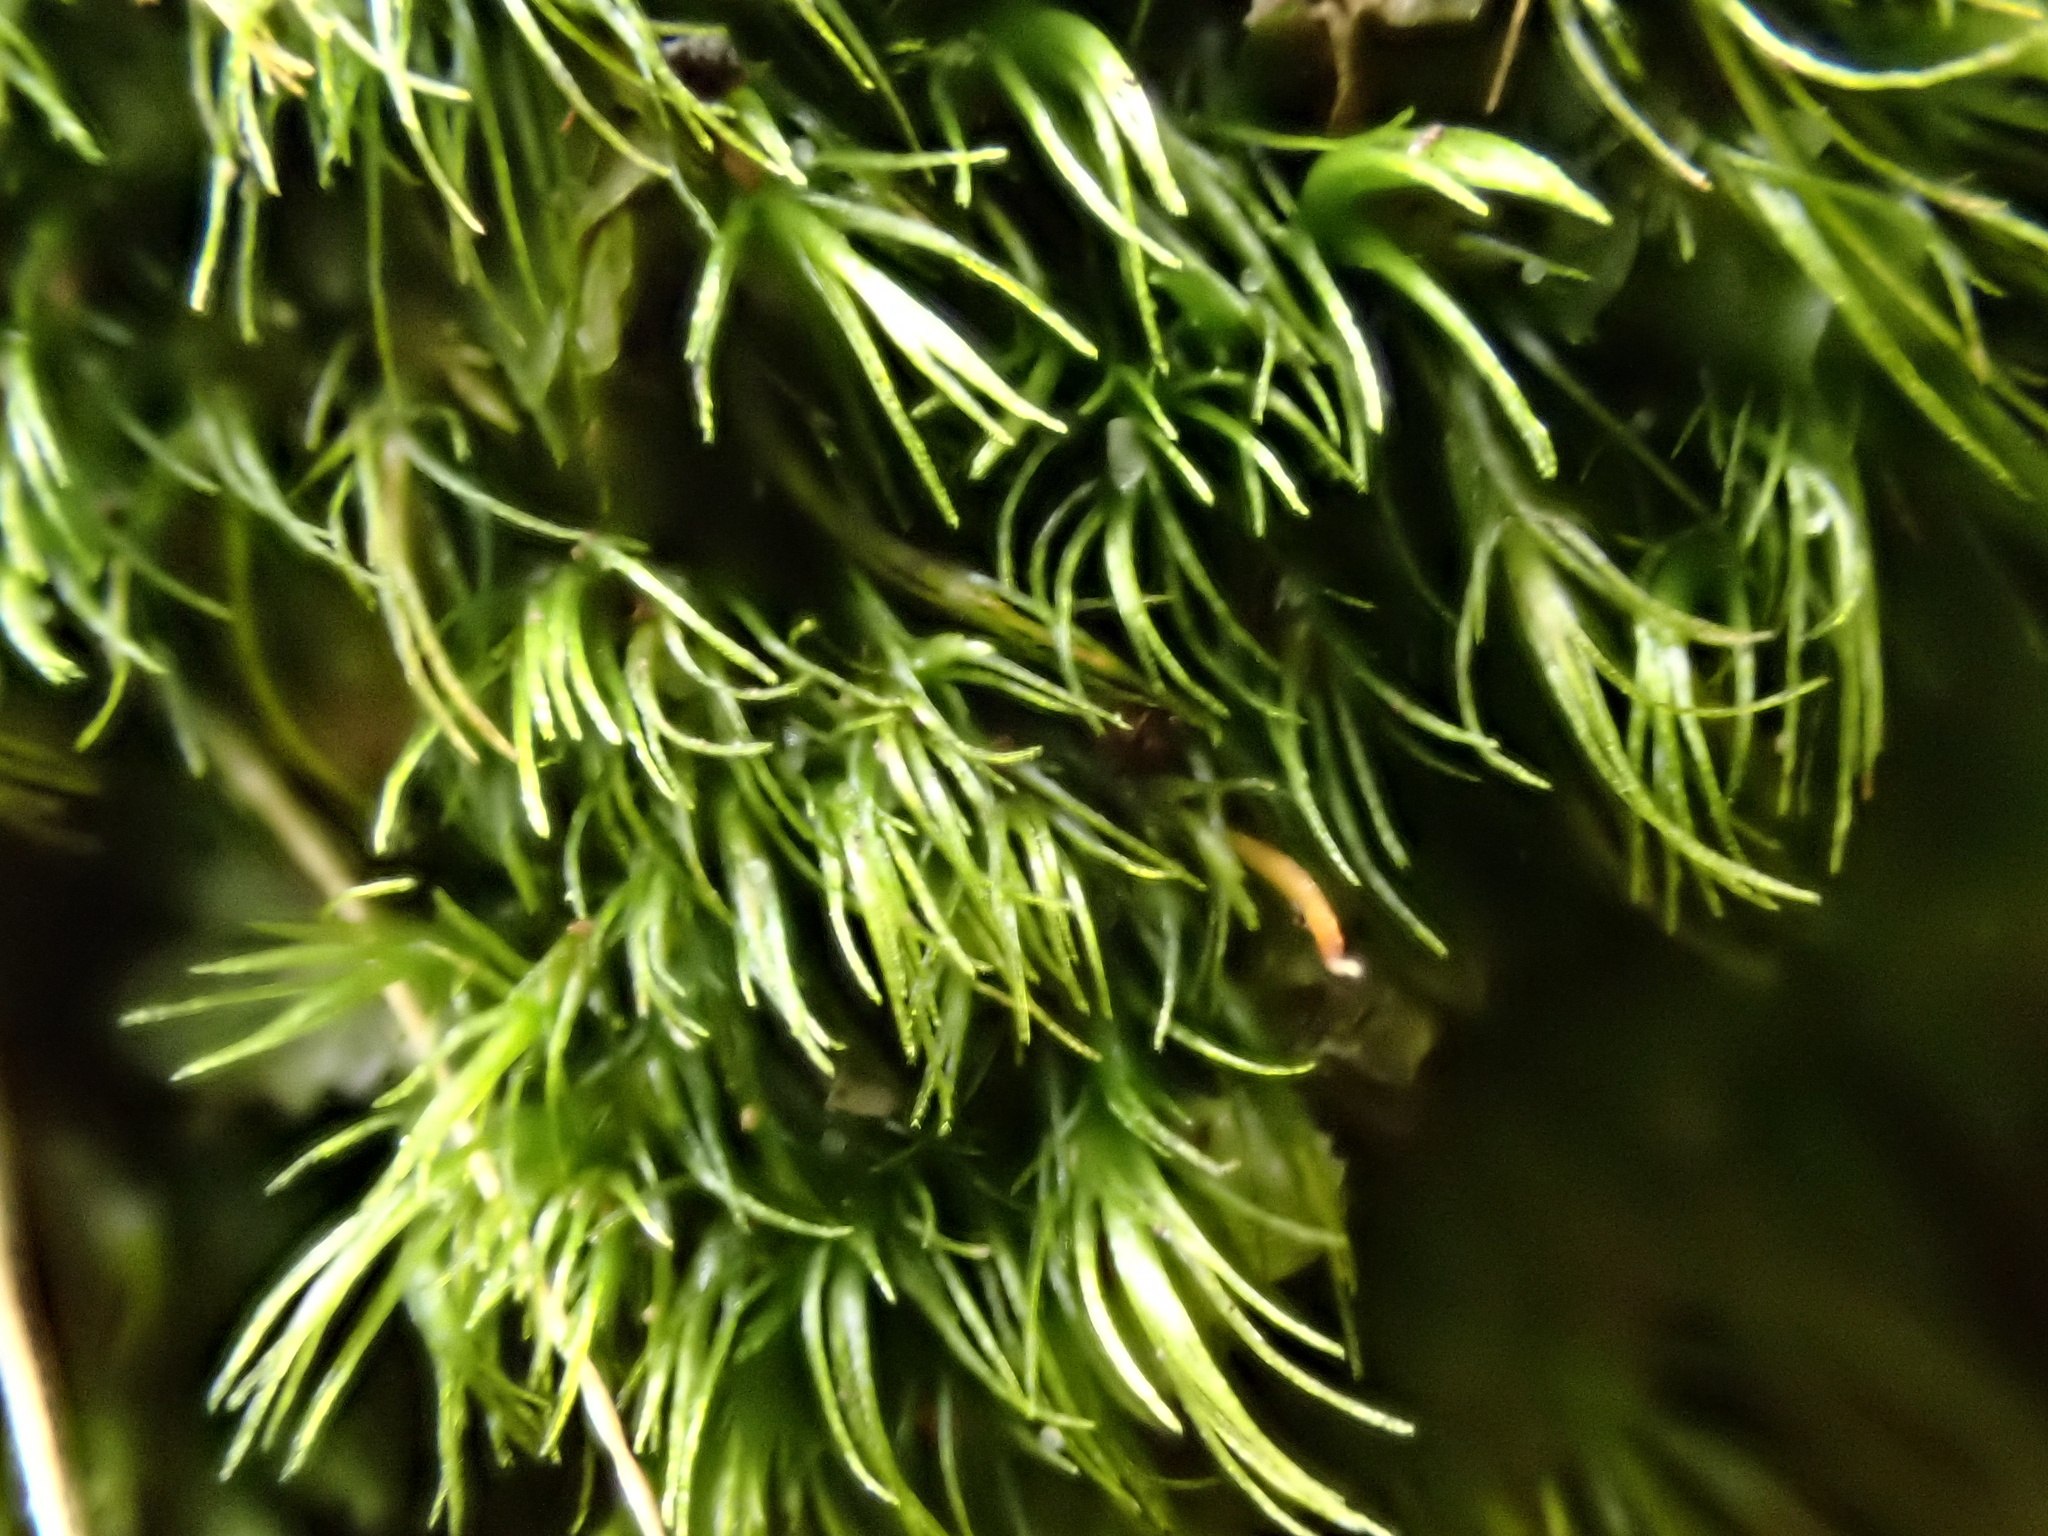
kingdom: Plantae
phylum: Bryophyta
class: Bryopsida
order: Dicranales
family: Dicranellaceae
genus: Dicranella
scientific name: Dicranella heteromalla
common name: Silky forklet moss
